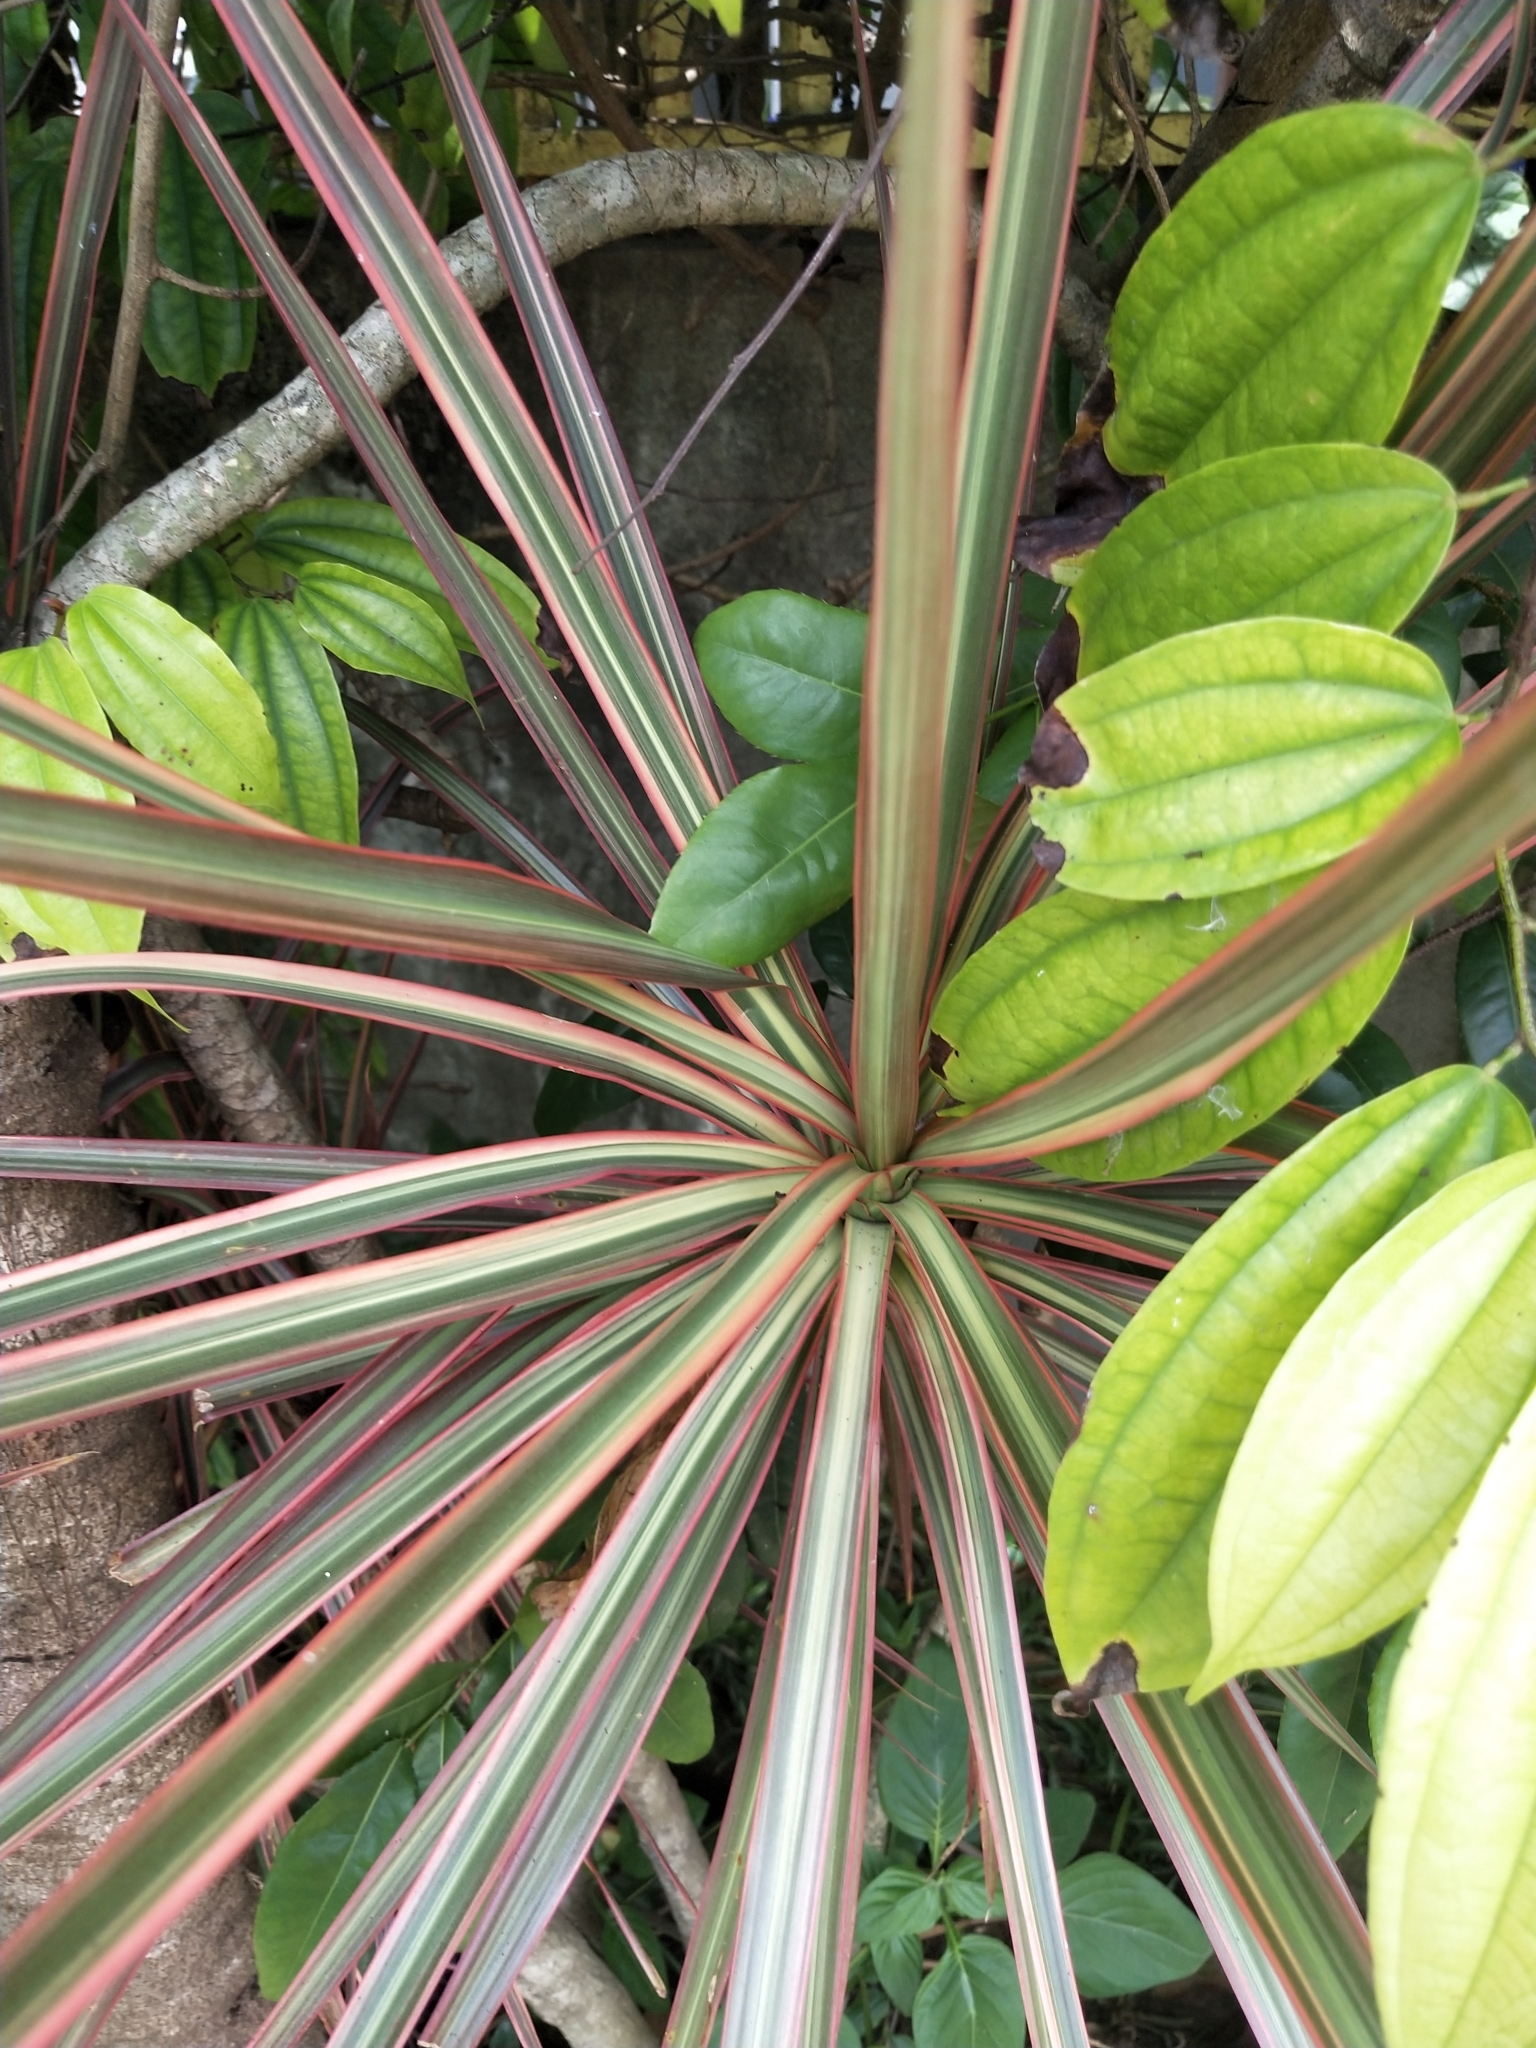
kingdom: Plantae
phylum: Tracheophyta
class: Liliopsida
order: Asparagales
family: Asparagaceae
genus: Dracaena
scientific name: Dracaena reflexa
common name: Song-of-india
